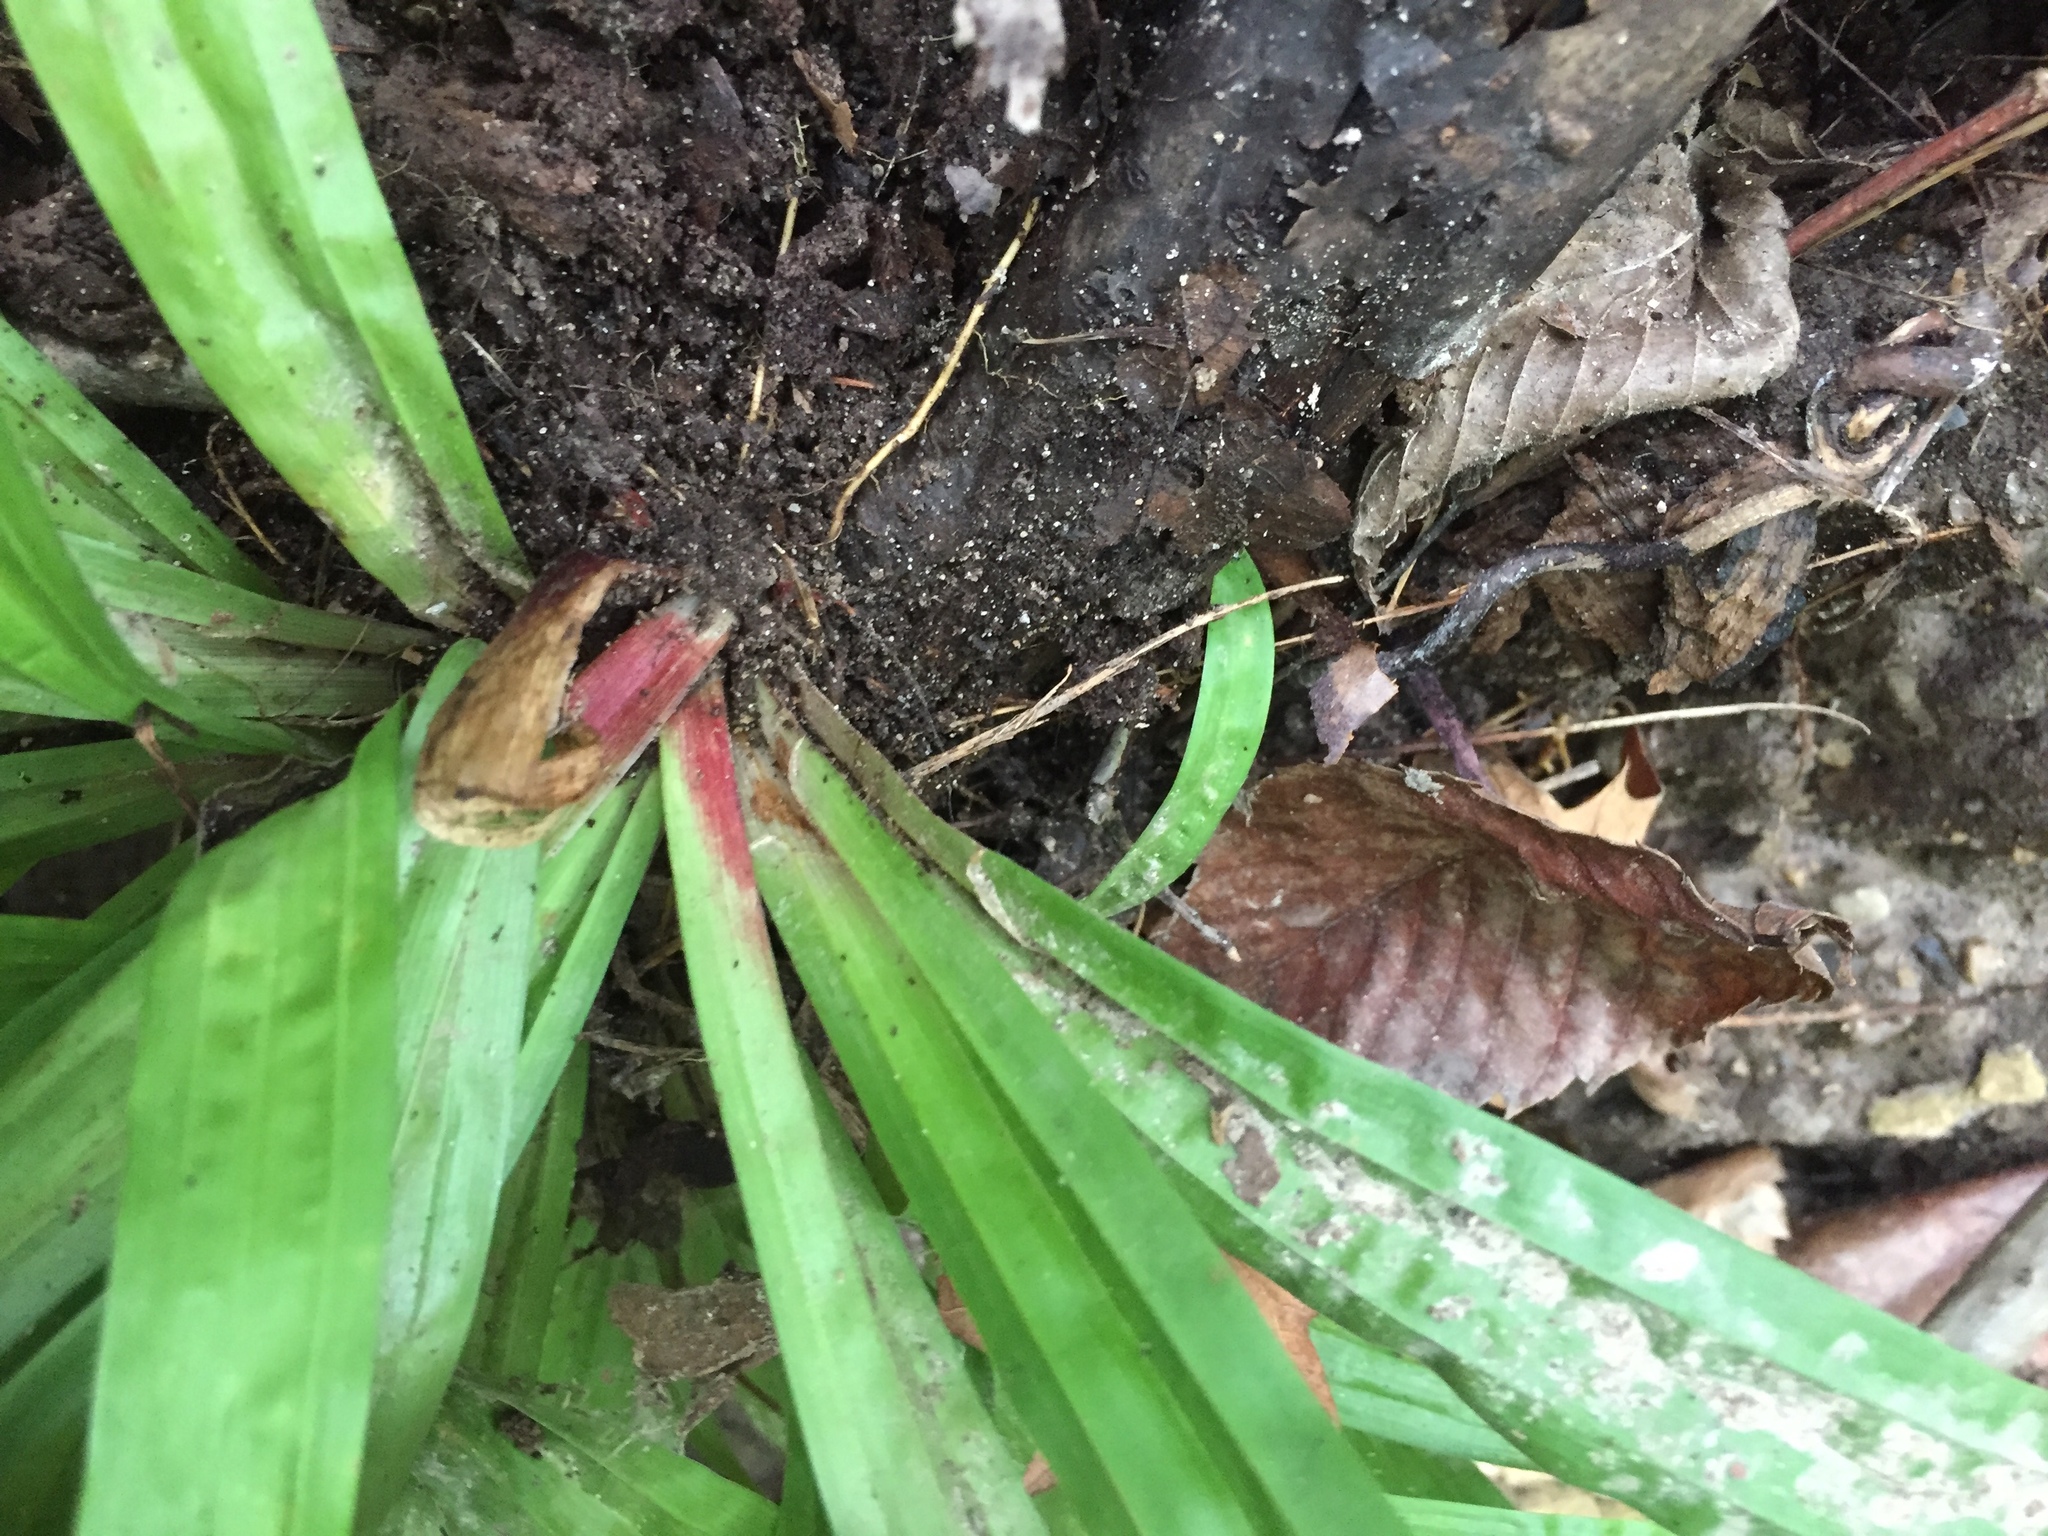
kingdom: Plantae
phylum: Tracheophyta
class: Liliopsida
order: Poales
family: Cyperaceae
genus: Carex
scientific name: Carex plantaginea
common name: Plantain-leaved sedge
